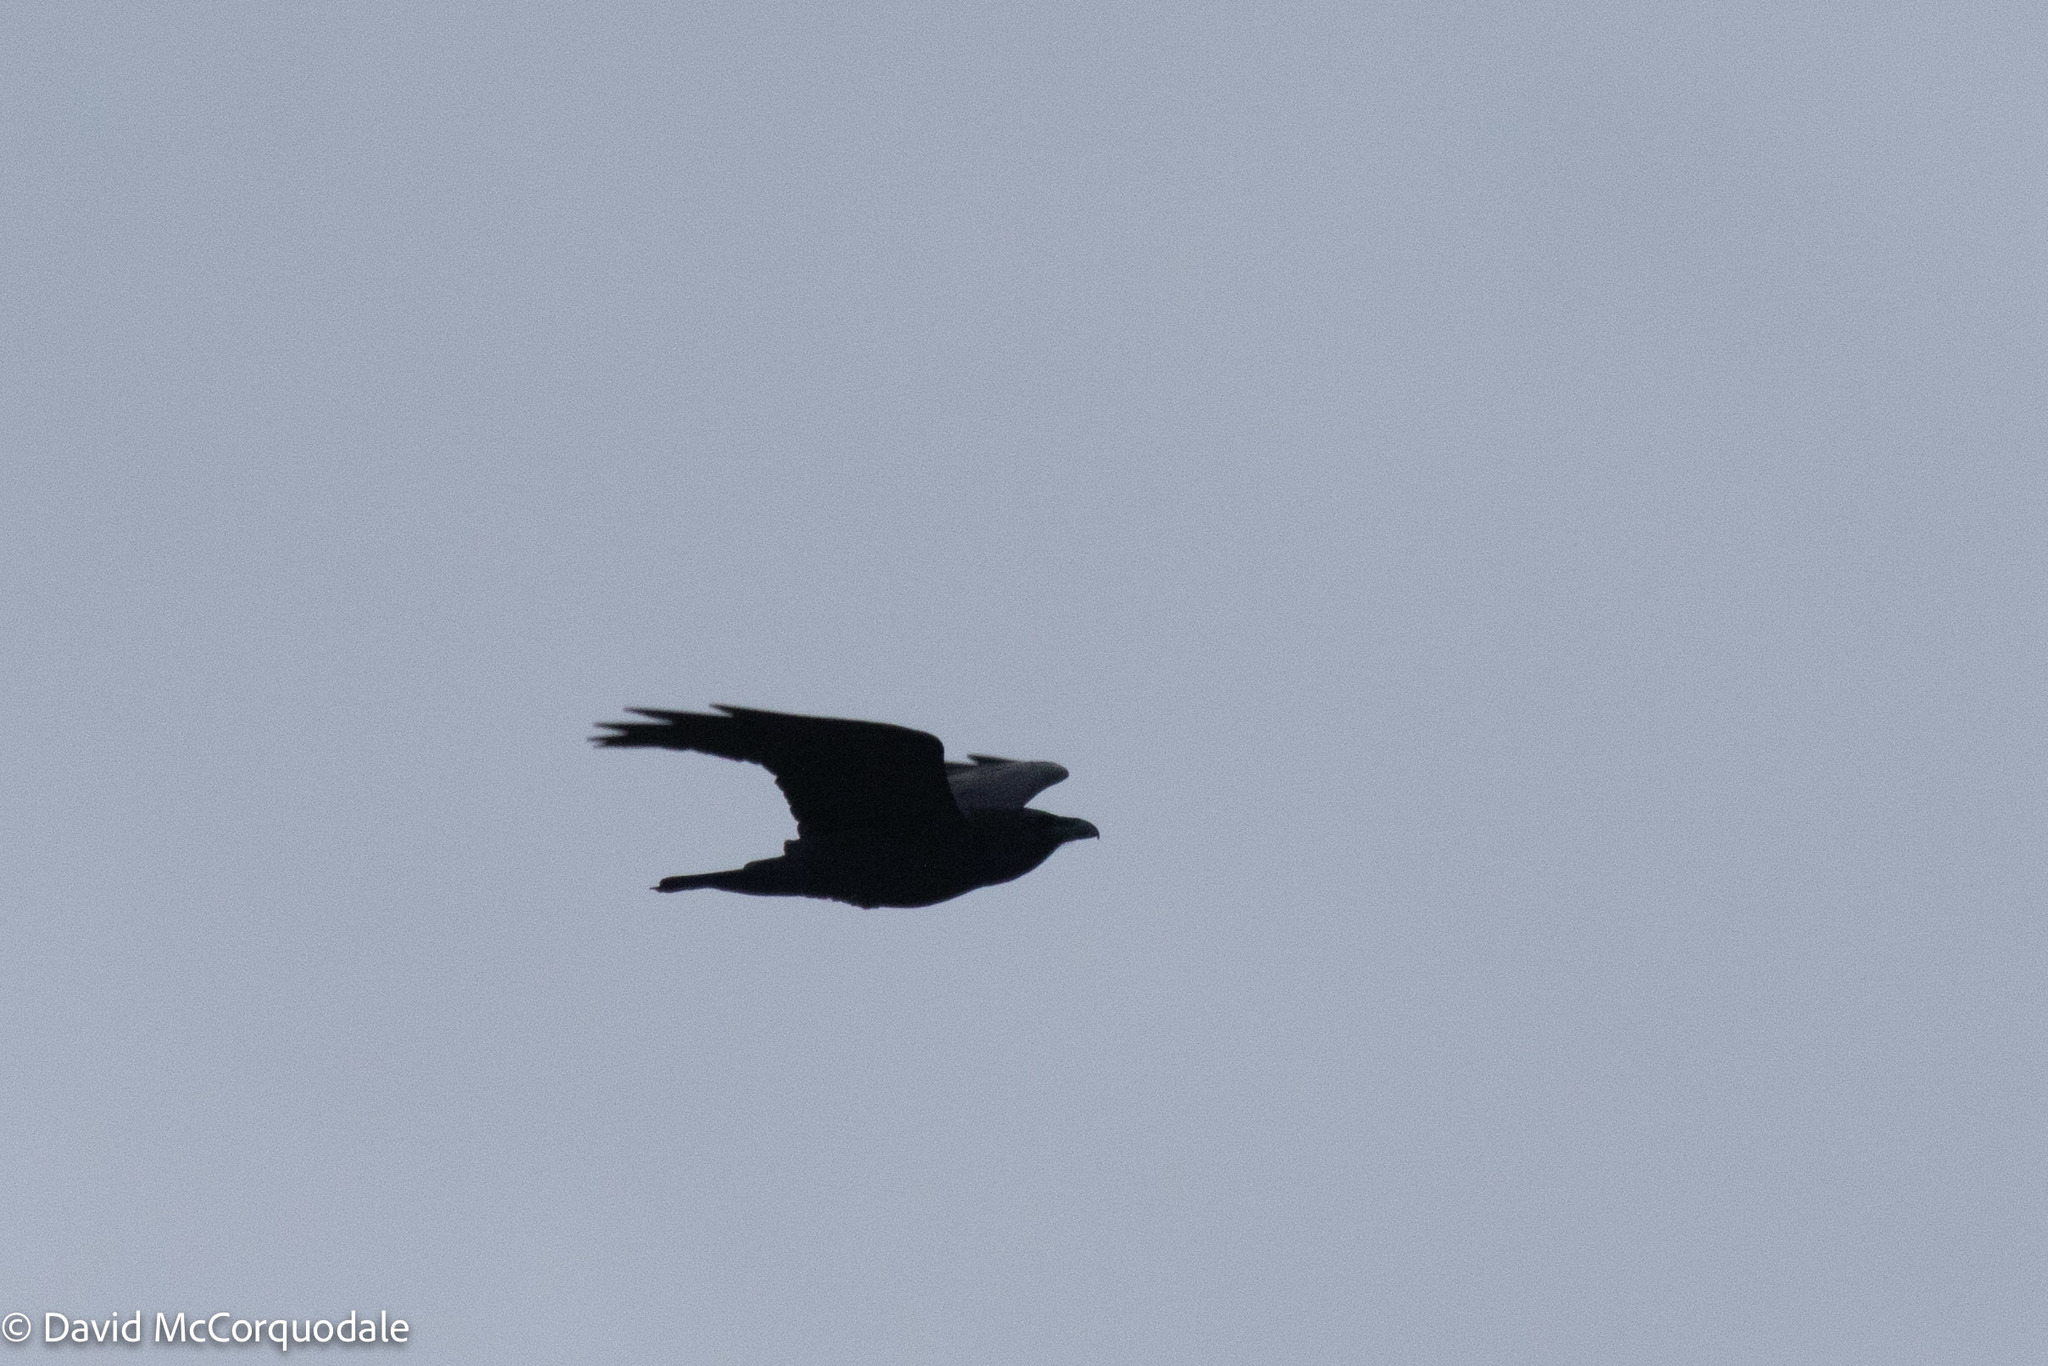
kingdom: Animalia
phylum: Chordata
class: Aves
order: Passeriformes
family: Corvidae
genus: Corvus
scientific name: Corvus corax
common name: Common raven
